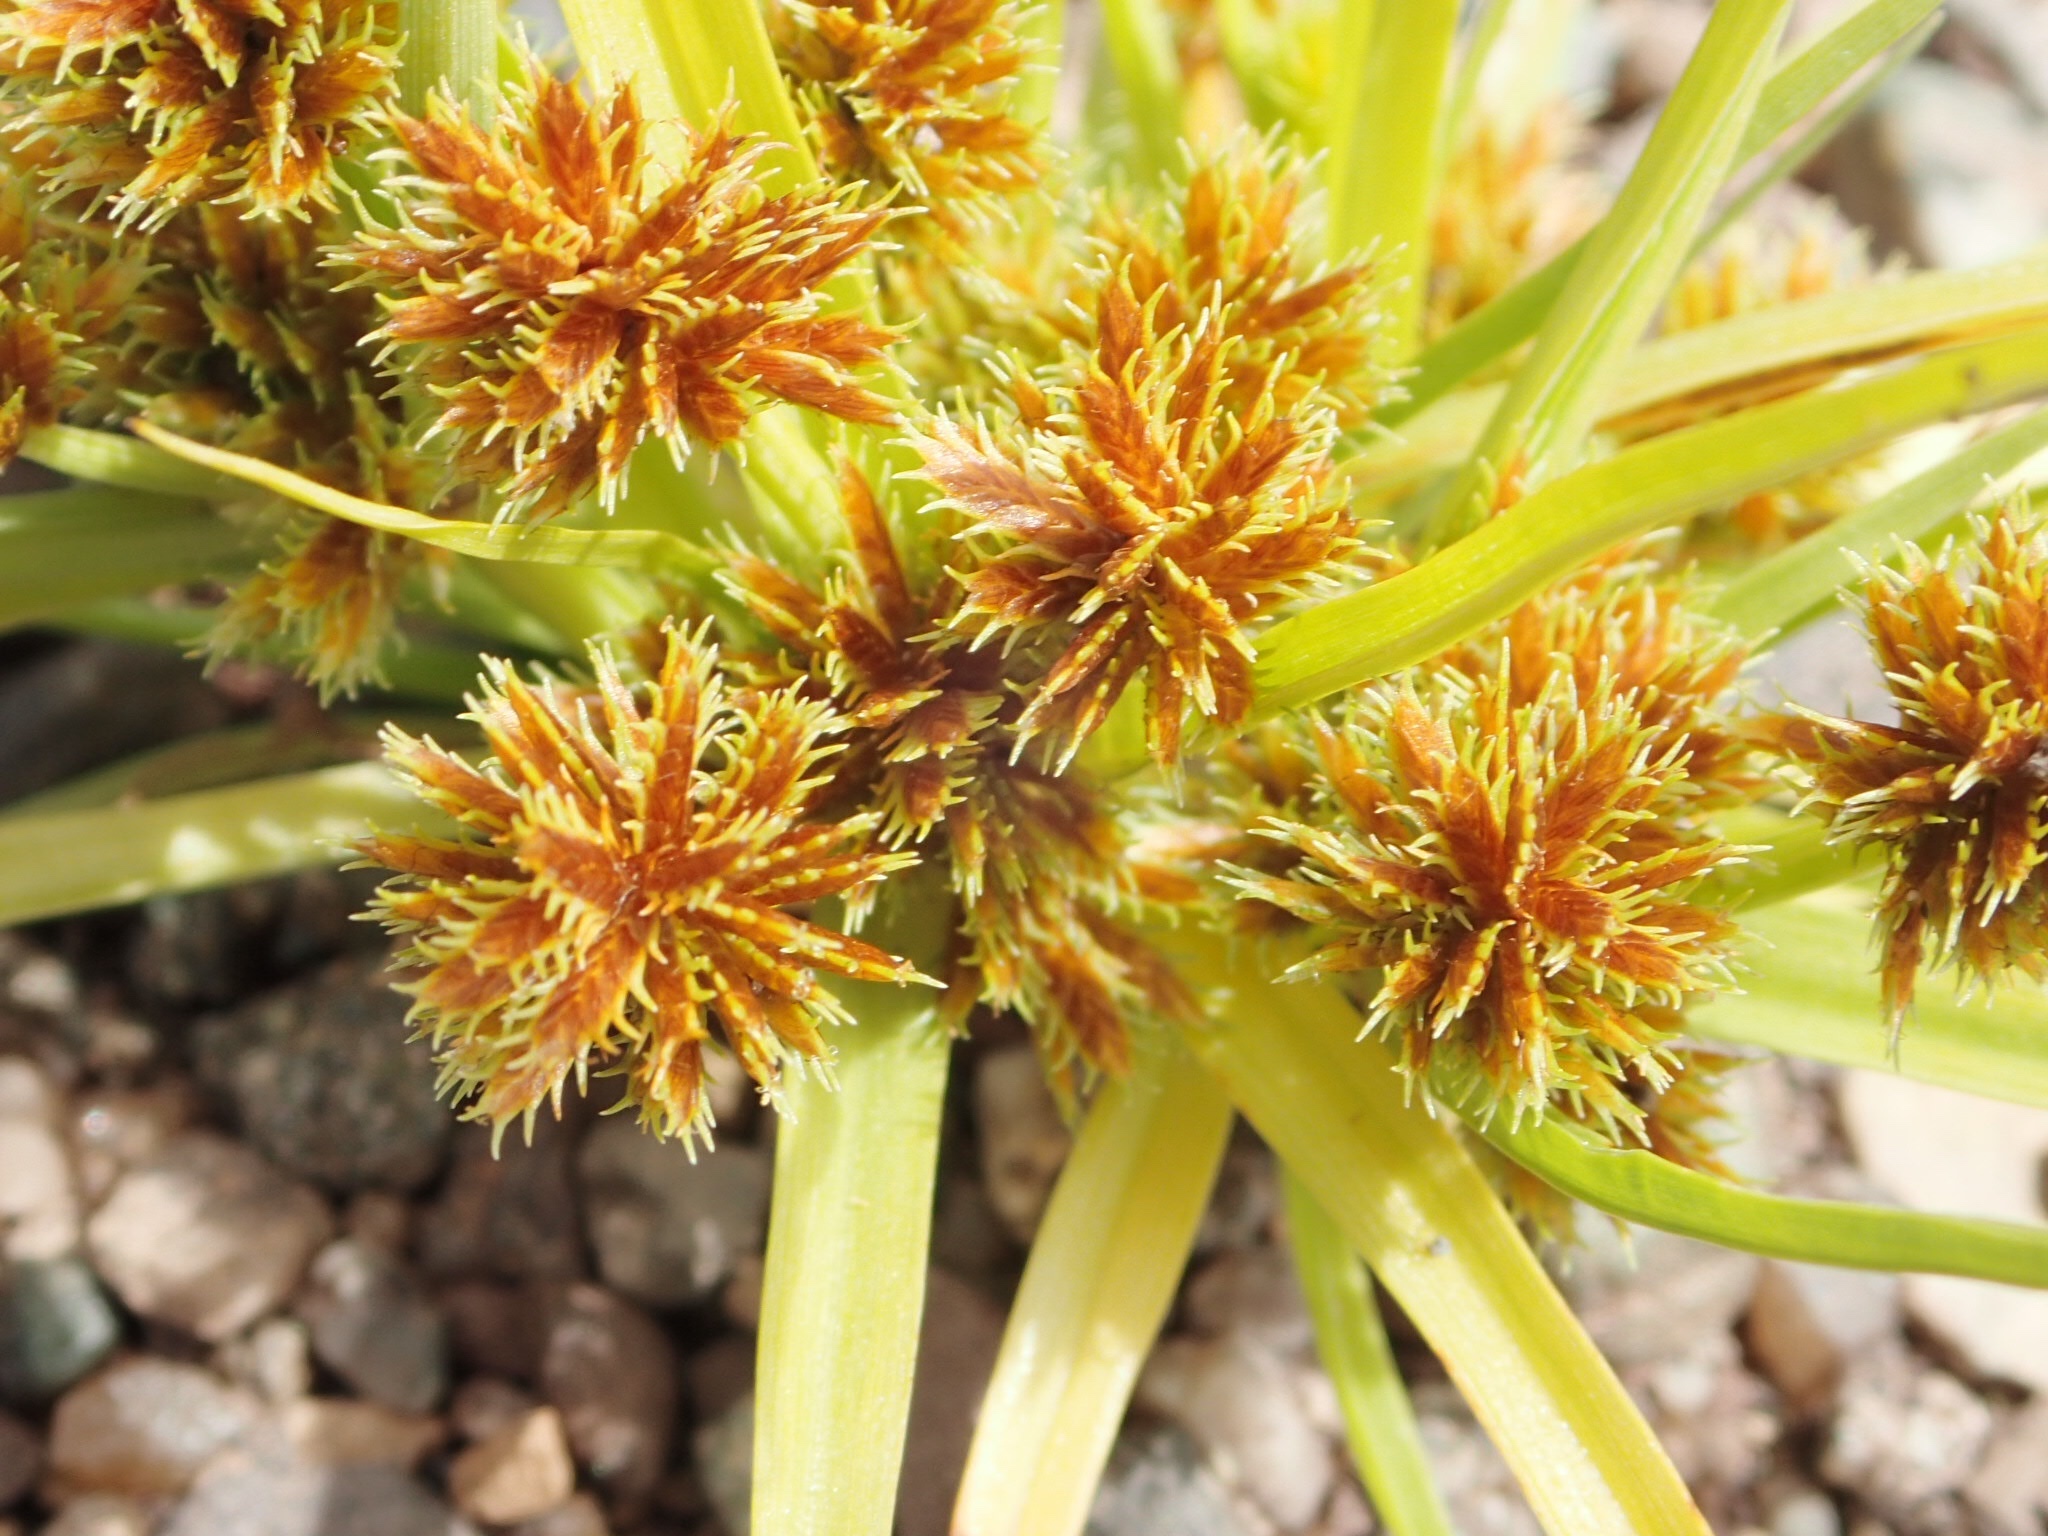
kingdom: Plantae
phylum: Tracheophyta
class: Liliopsida
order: Poales
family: Cyperaceae
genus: Cyperus
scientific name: Cyperus squarrosus
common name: Awned cyperus
